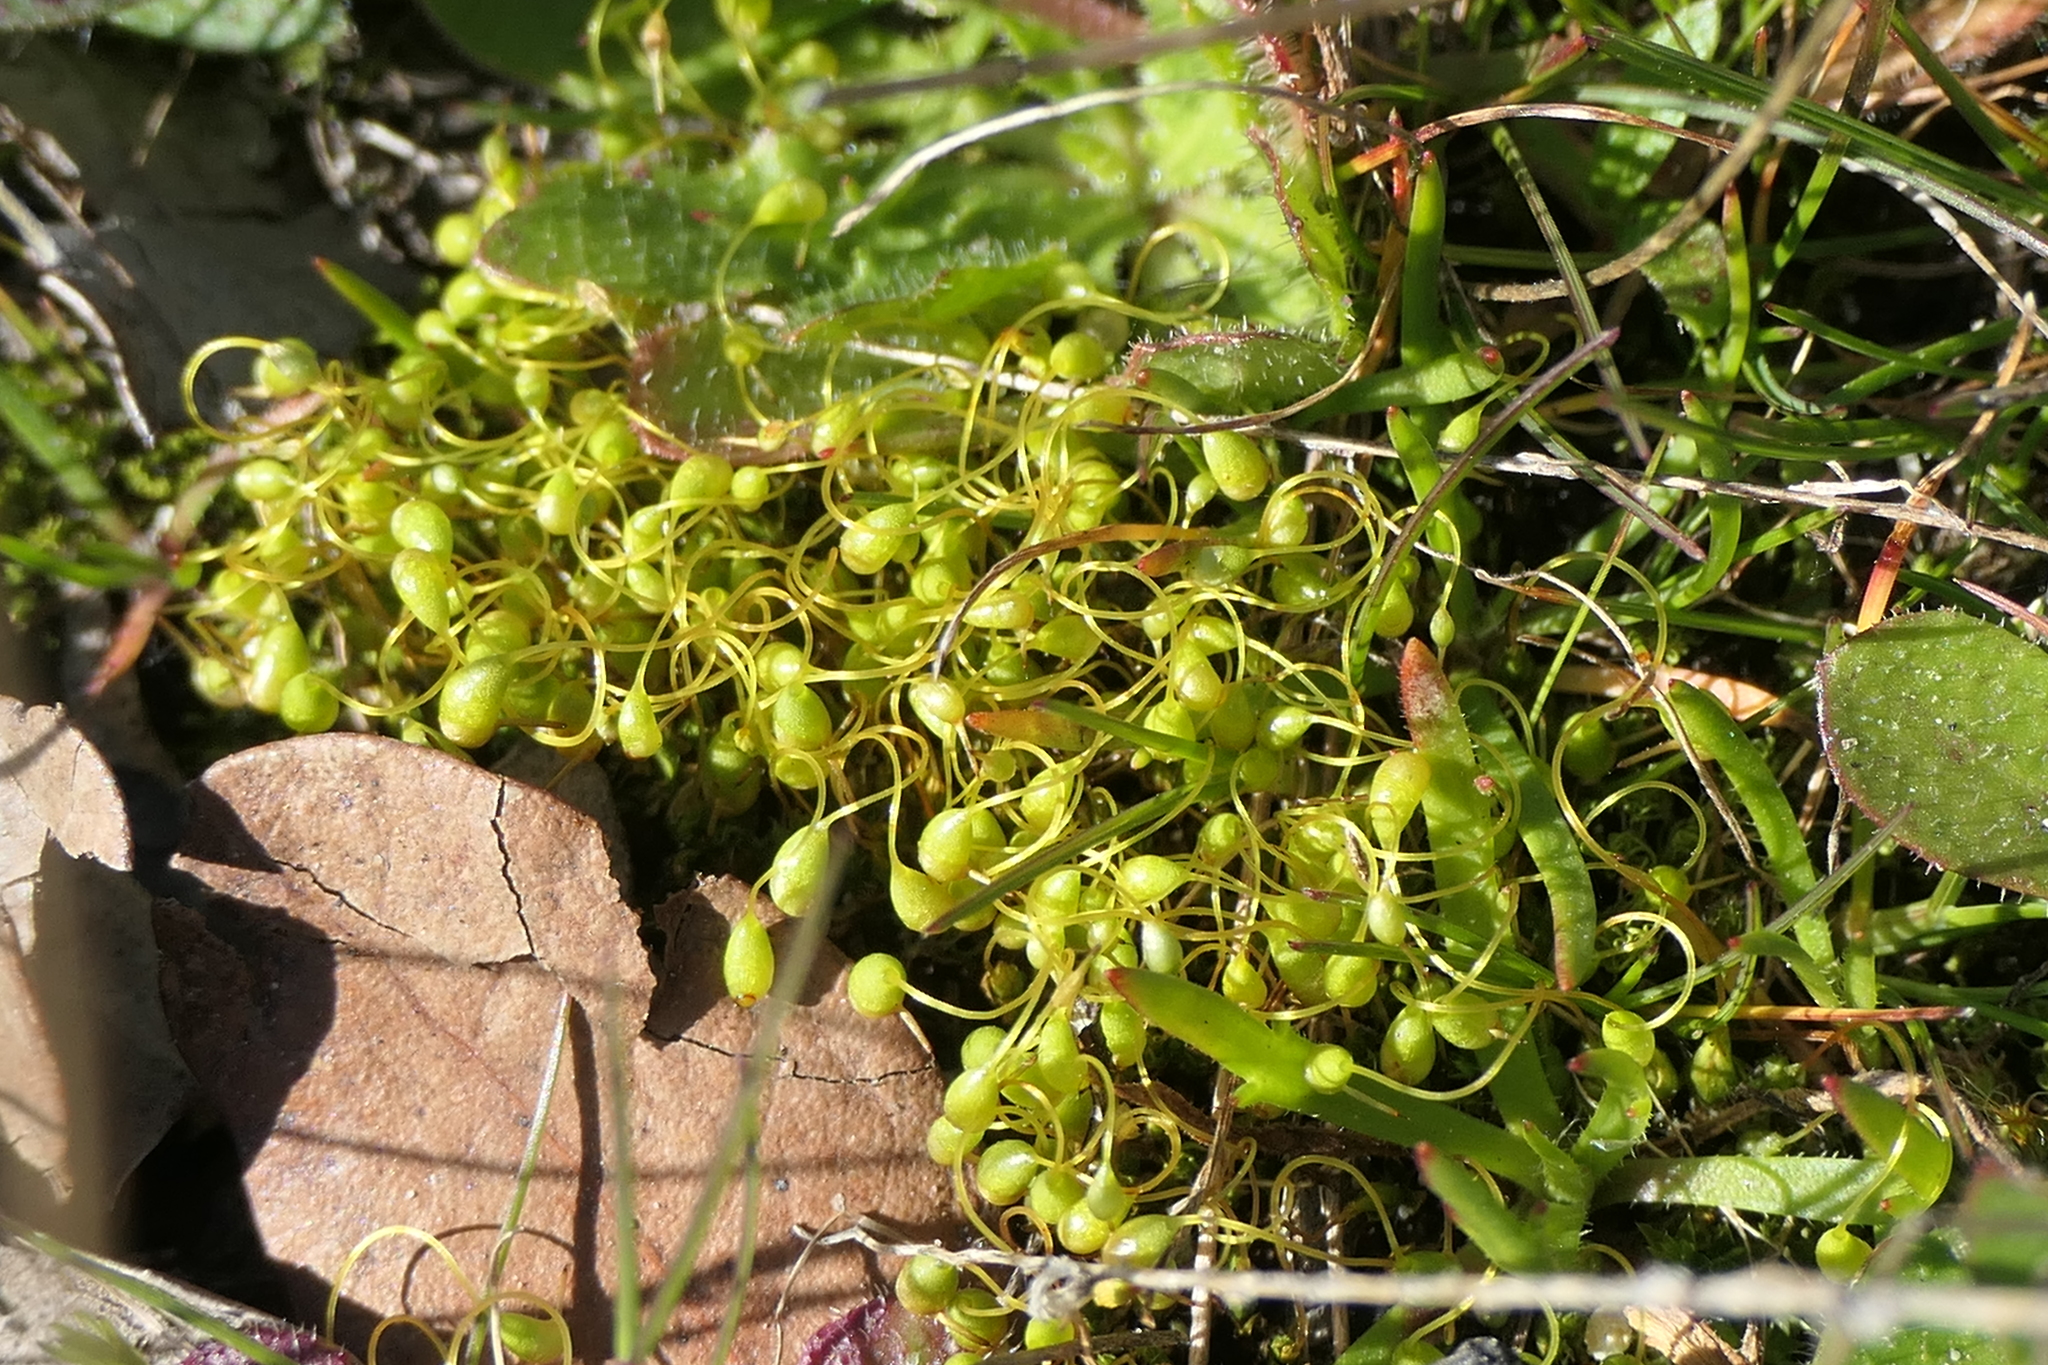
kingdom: Plantae
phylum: Bryophyta
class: Bryopsida
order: Funariales
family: Funariaceae
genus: Funaria
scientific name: Funaria hygrometrica
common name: Common cord moss
